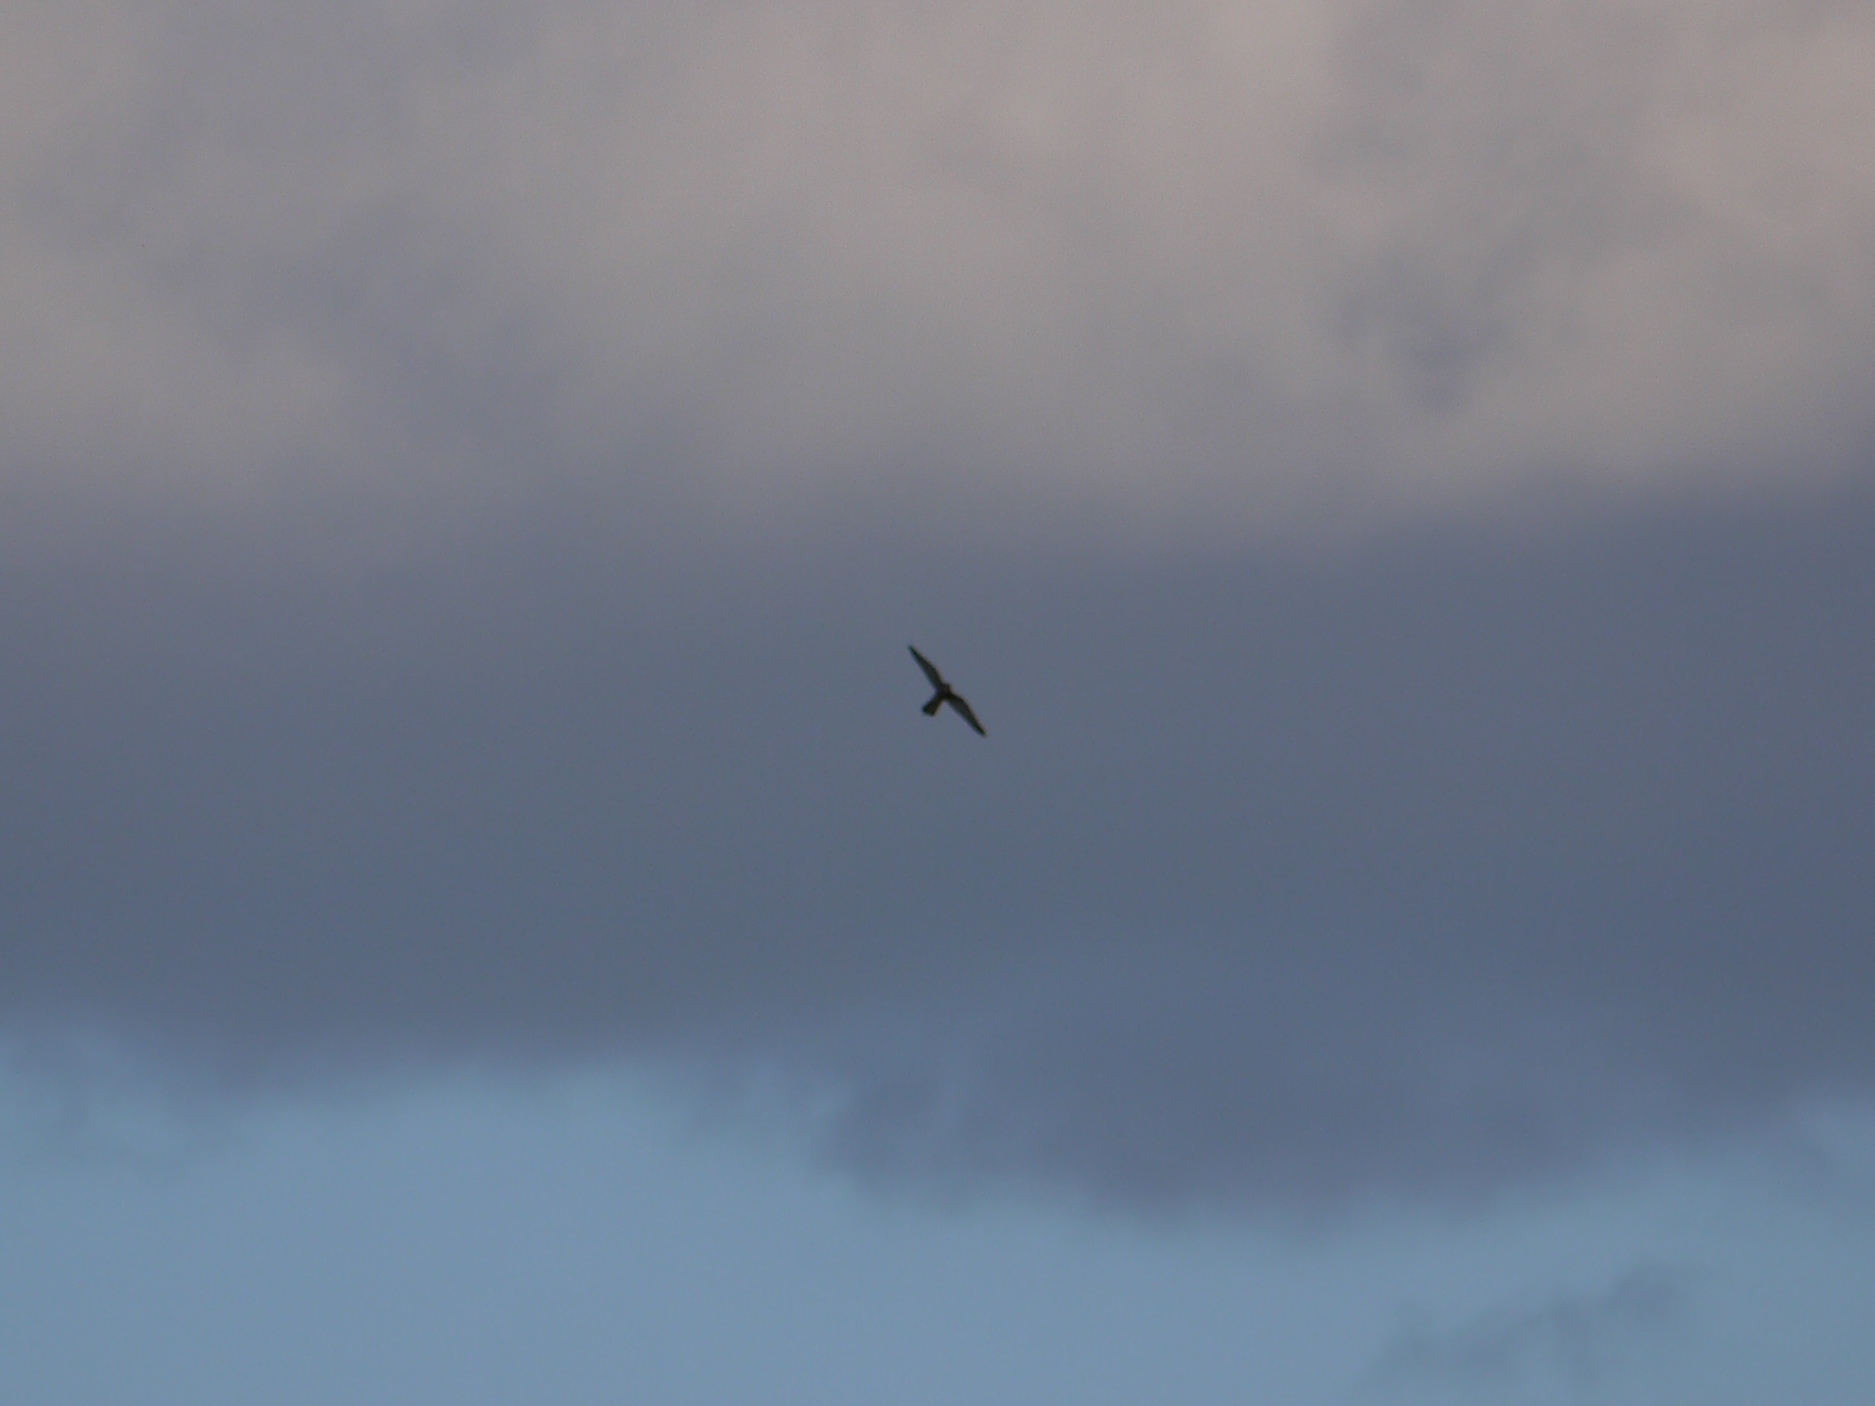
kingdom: Animalia
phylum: Chordata
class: Aves
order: Falconiformes
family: Falconidae
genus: Falco
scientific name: Falco tinnunculus
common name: Common kestrel
